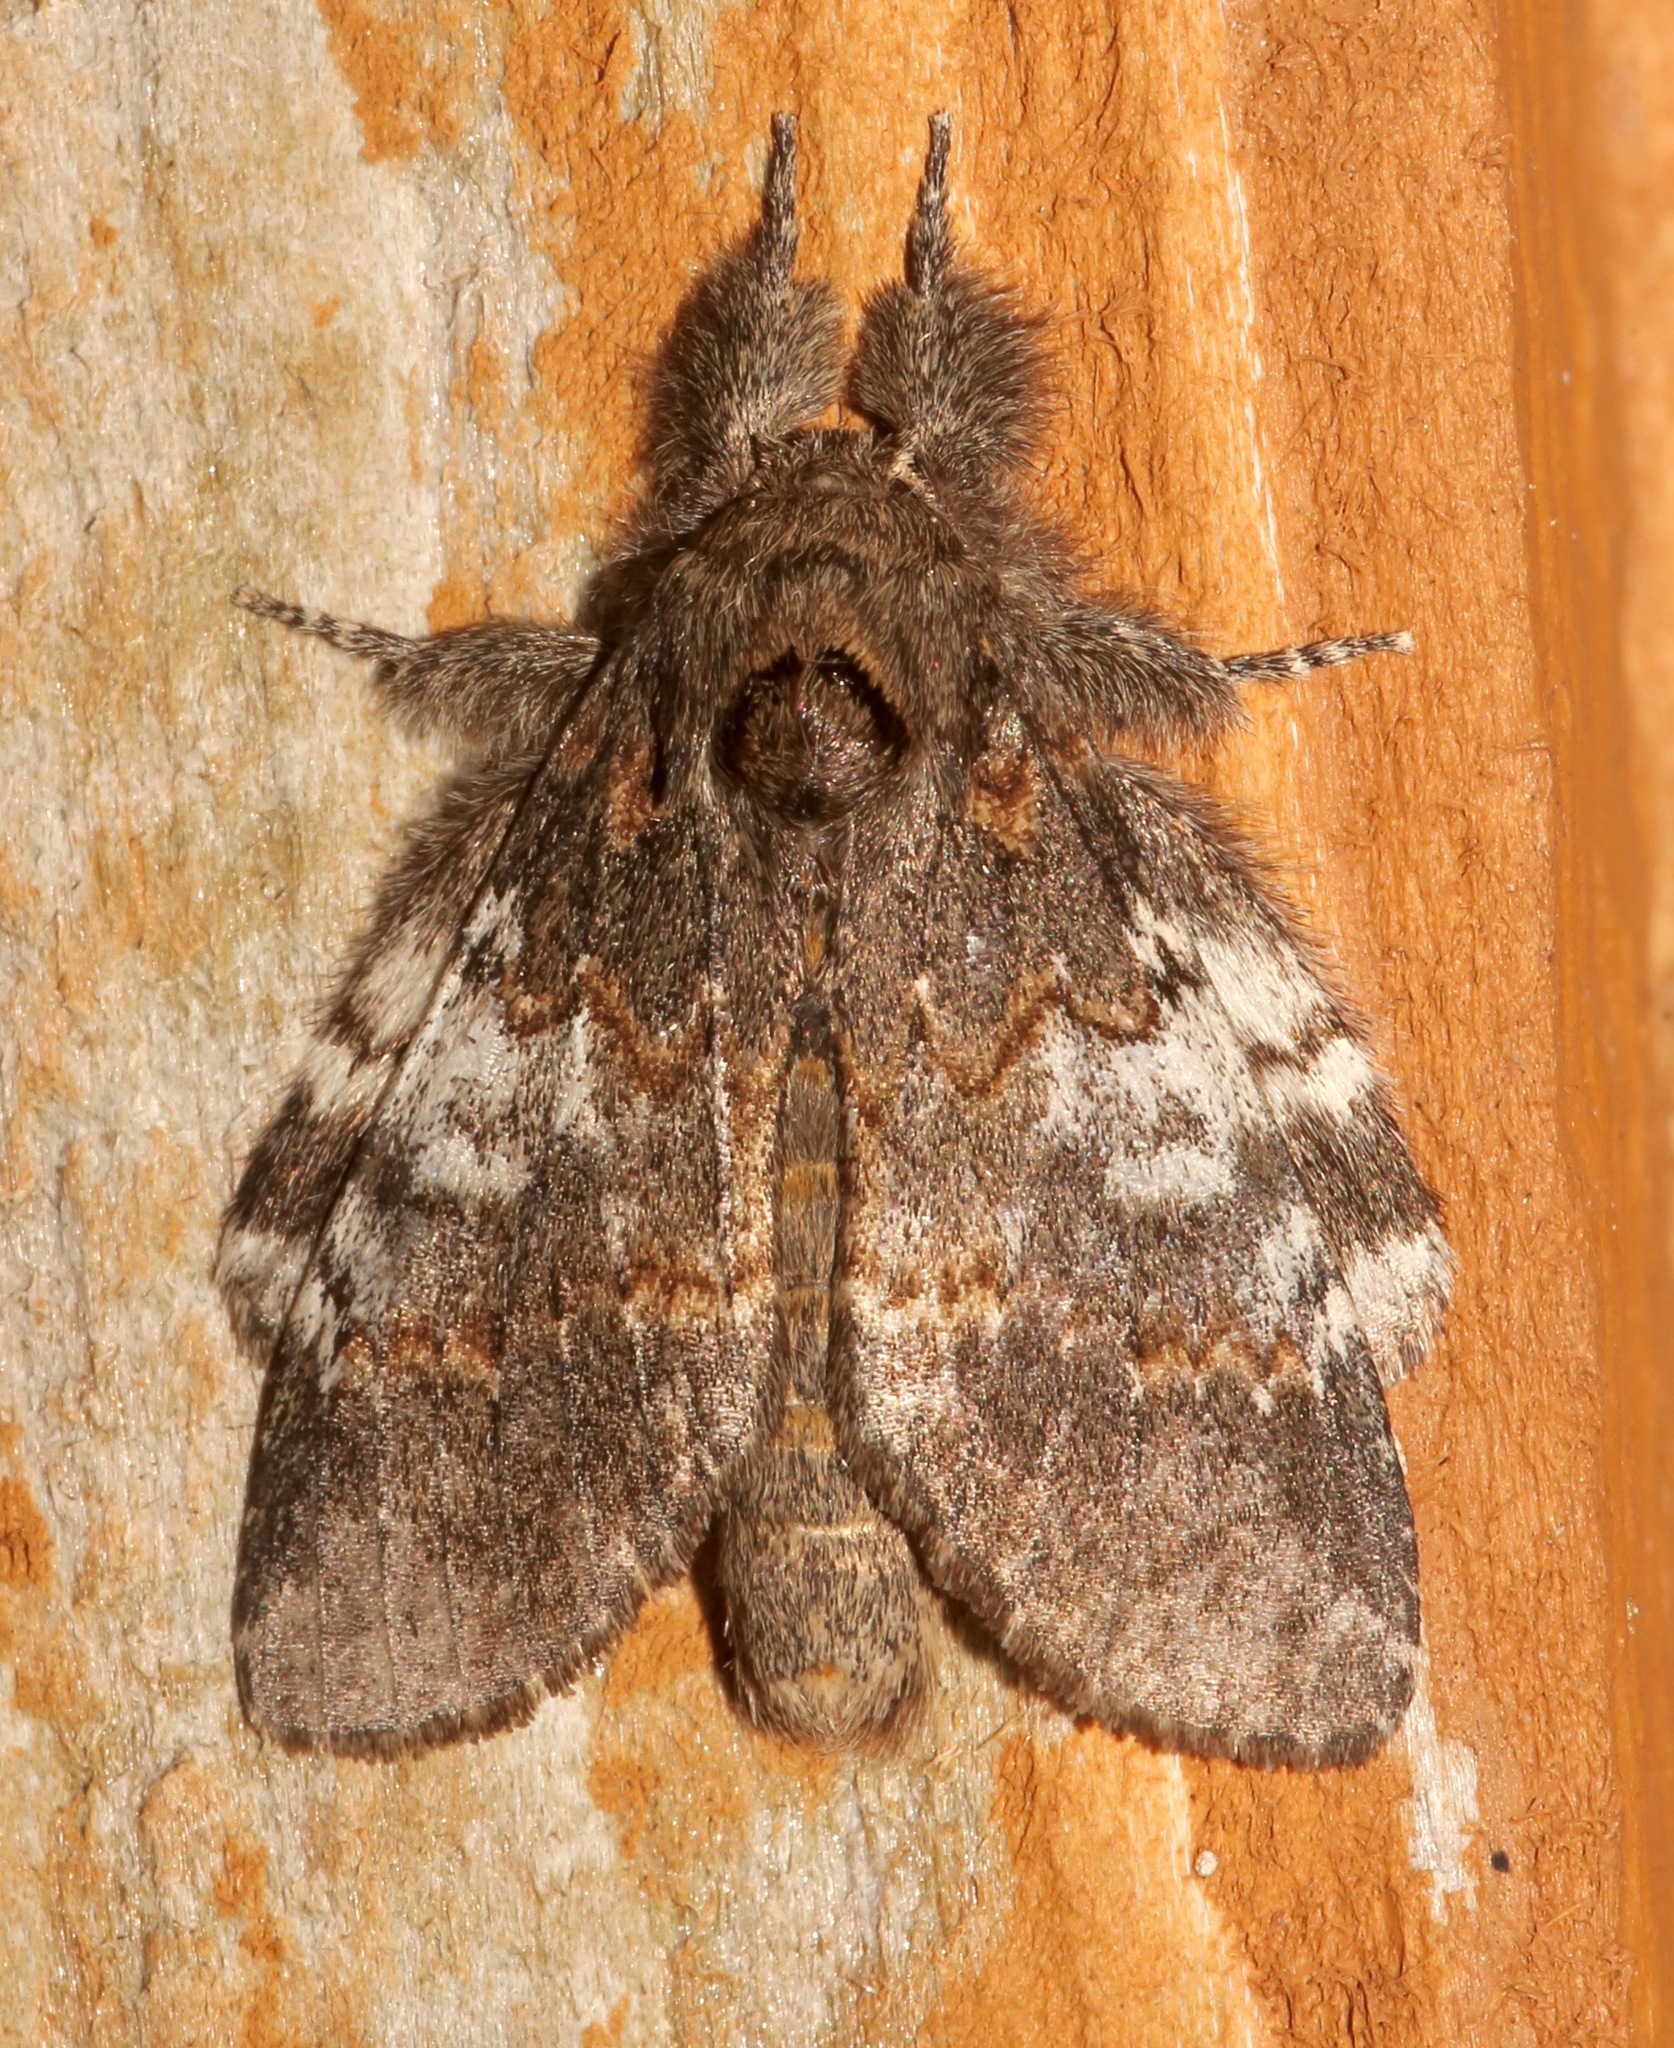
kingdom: Animalia
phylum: Arthropoda
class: Insecta
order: Lepidoptera
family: Notodontidae
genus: Peridea
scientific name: Peridea angulosa
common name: Angulose prominent
